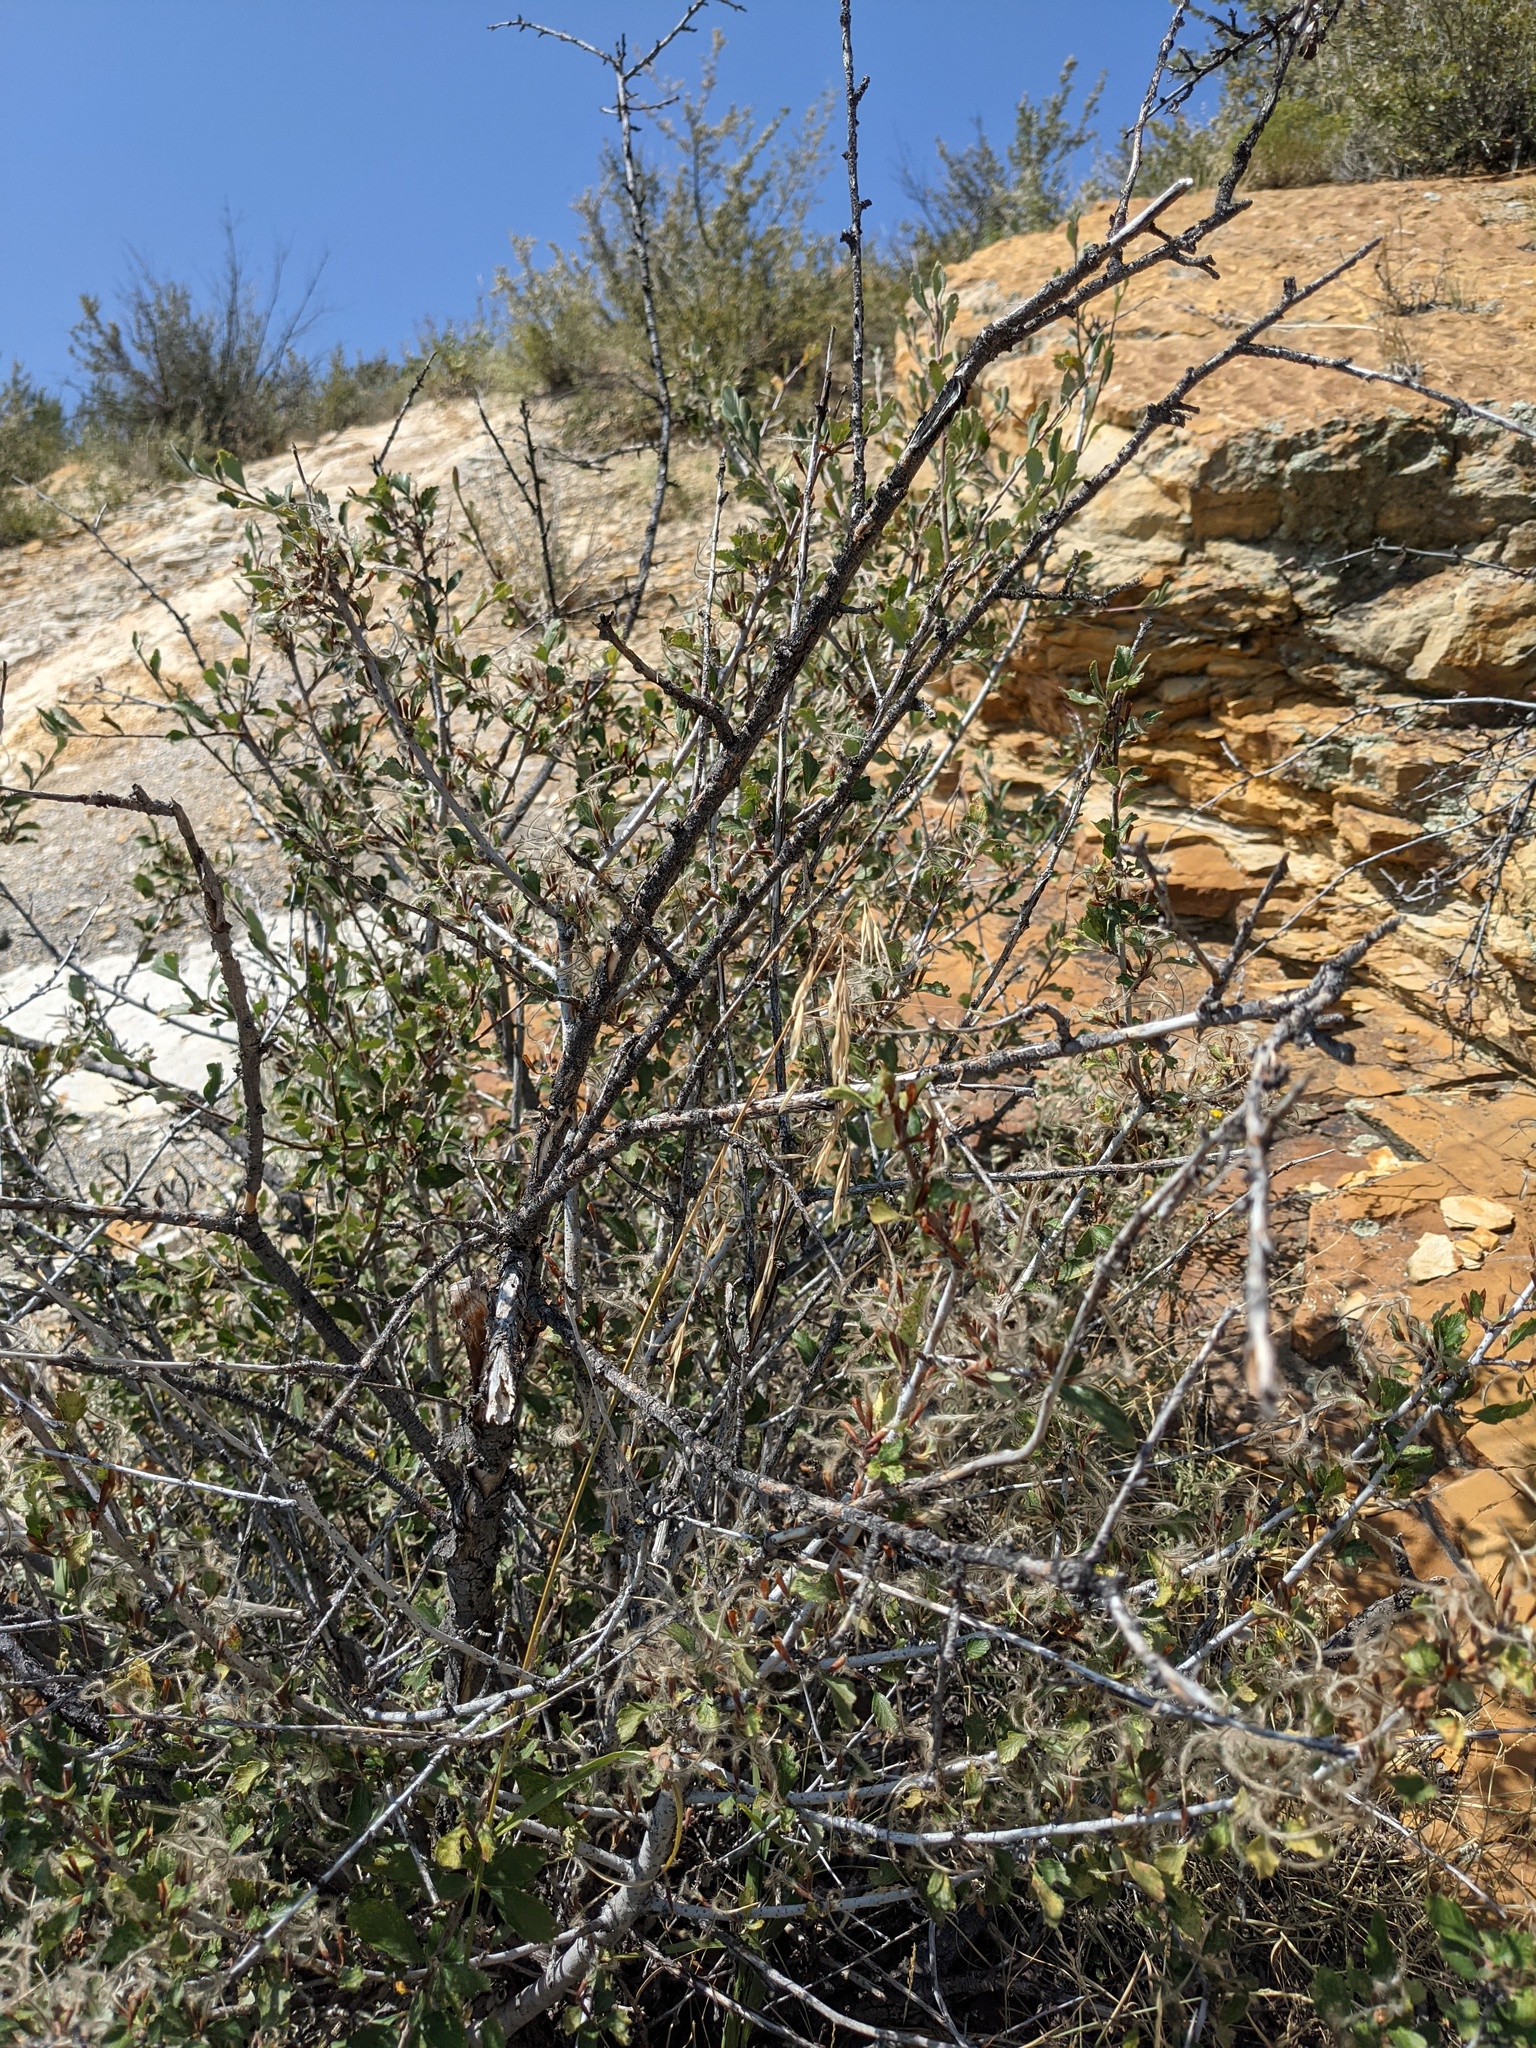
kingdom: Plantae
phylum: Tracheophyta
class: Magnoliopsida
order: Rosales
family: Rosaceae
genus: Cercocarpus
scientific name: Cercocarpus montanus
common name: Alder-leaf cercocarpus
